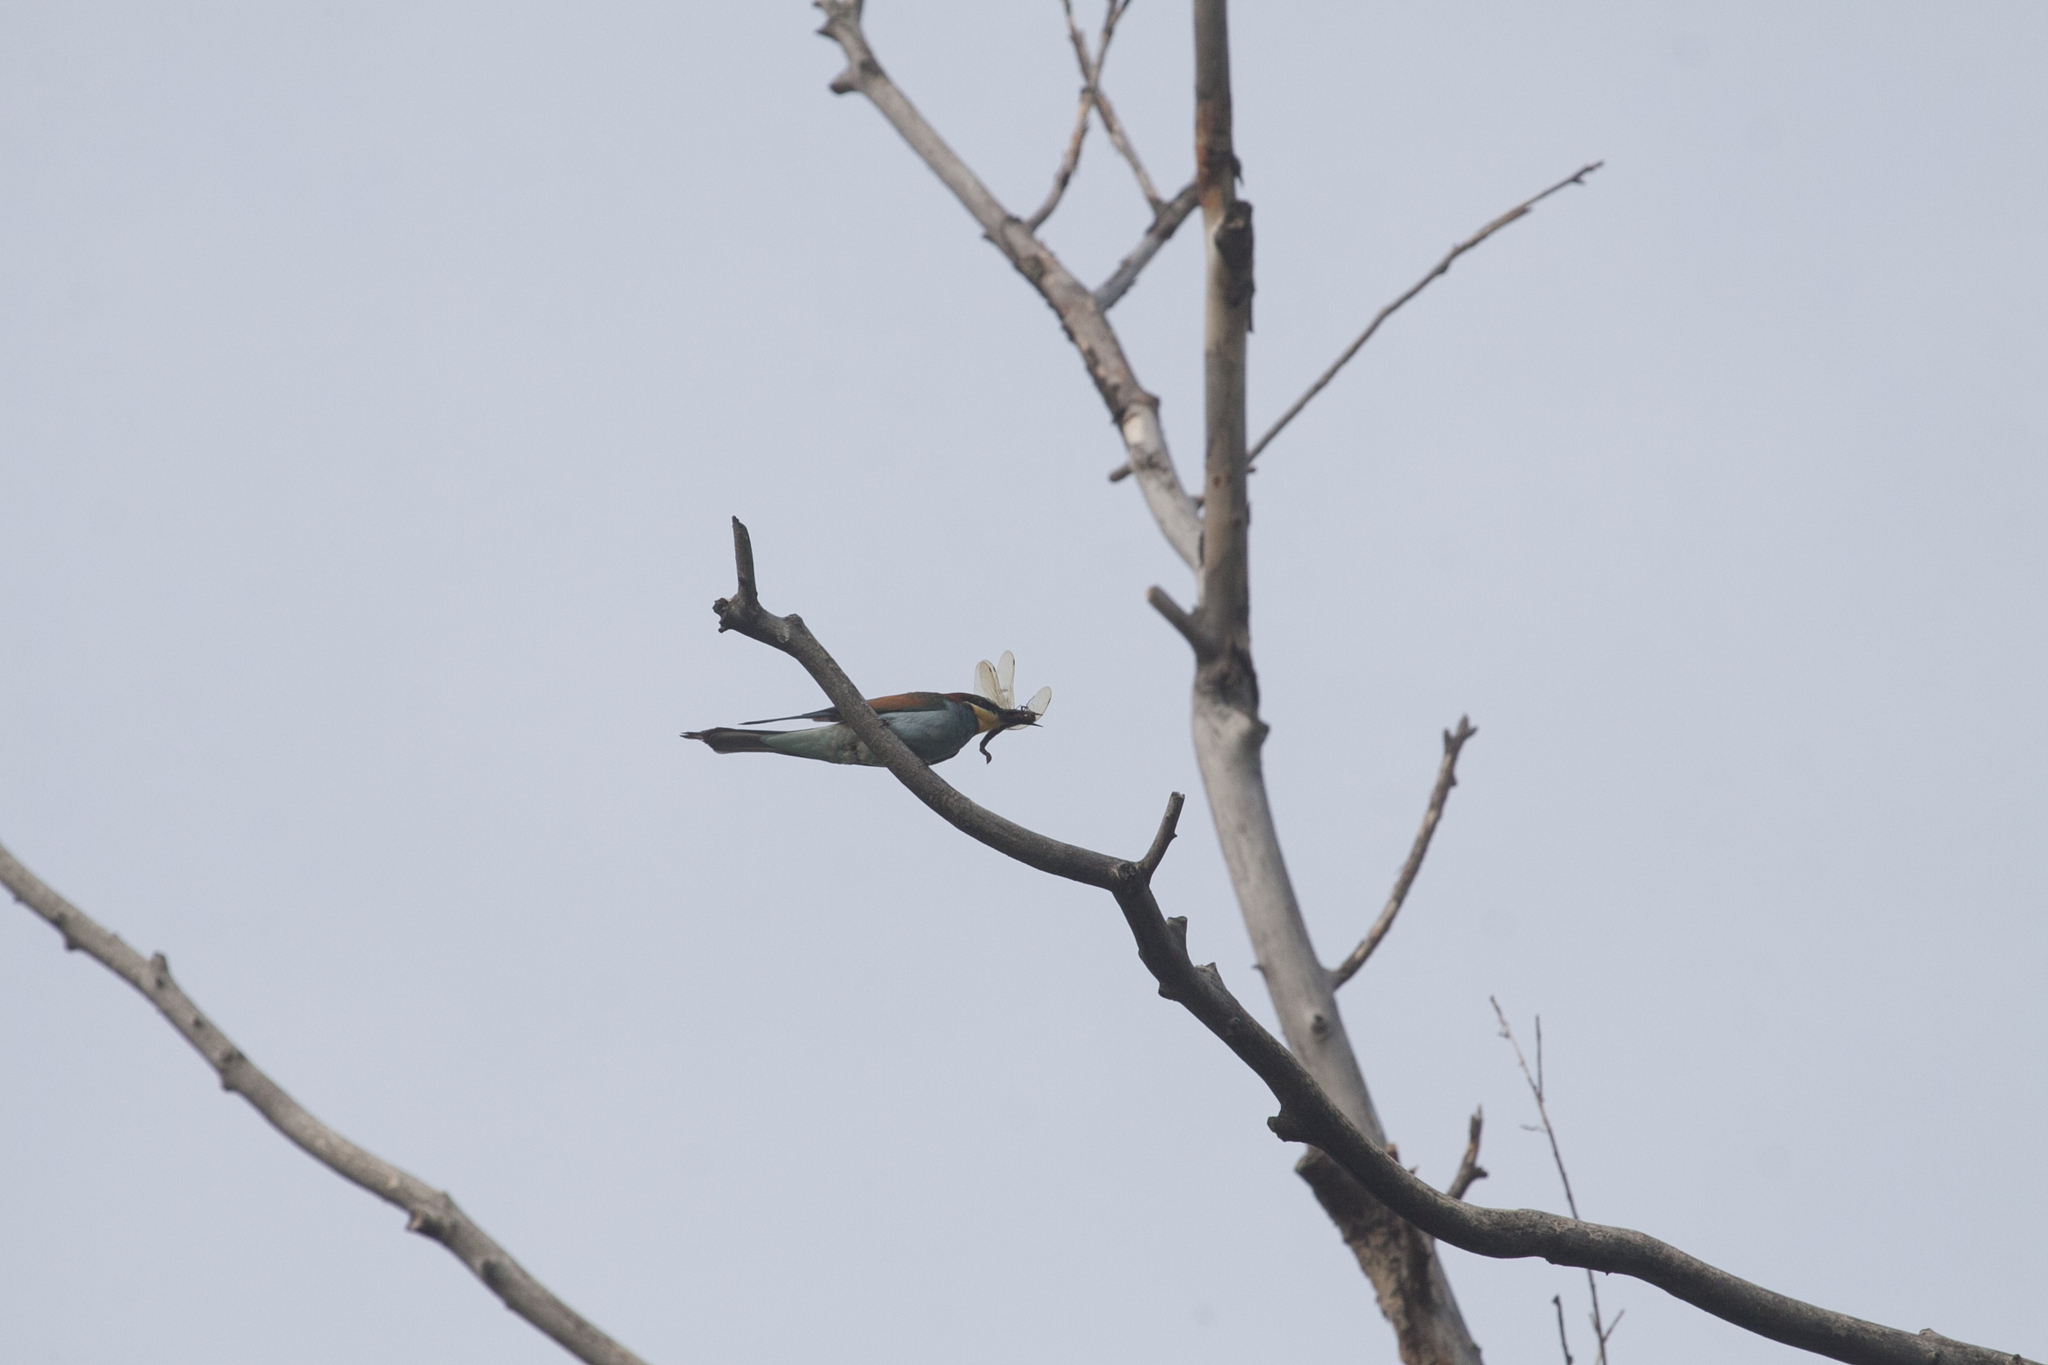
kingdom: Animalia
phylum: Chordata
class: Aves
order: Coraciiformes
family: Meropidae
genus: Merops
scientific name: Merops apiaster
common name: European bee-eater
